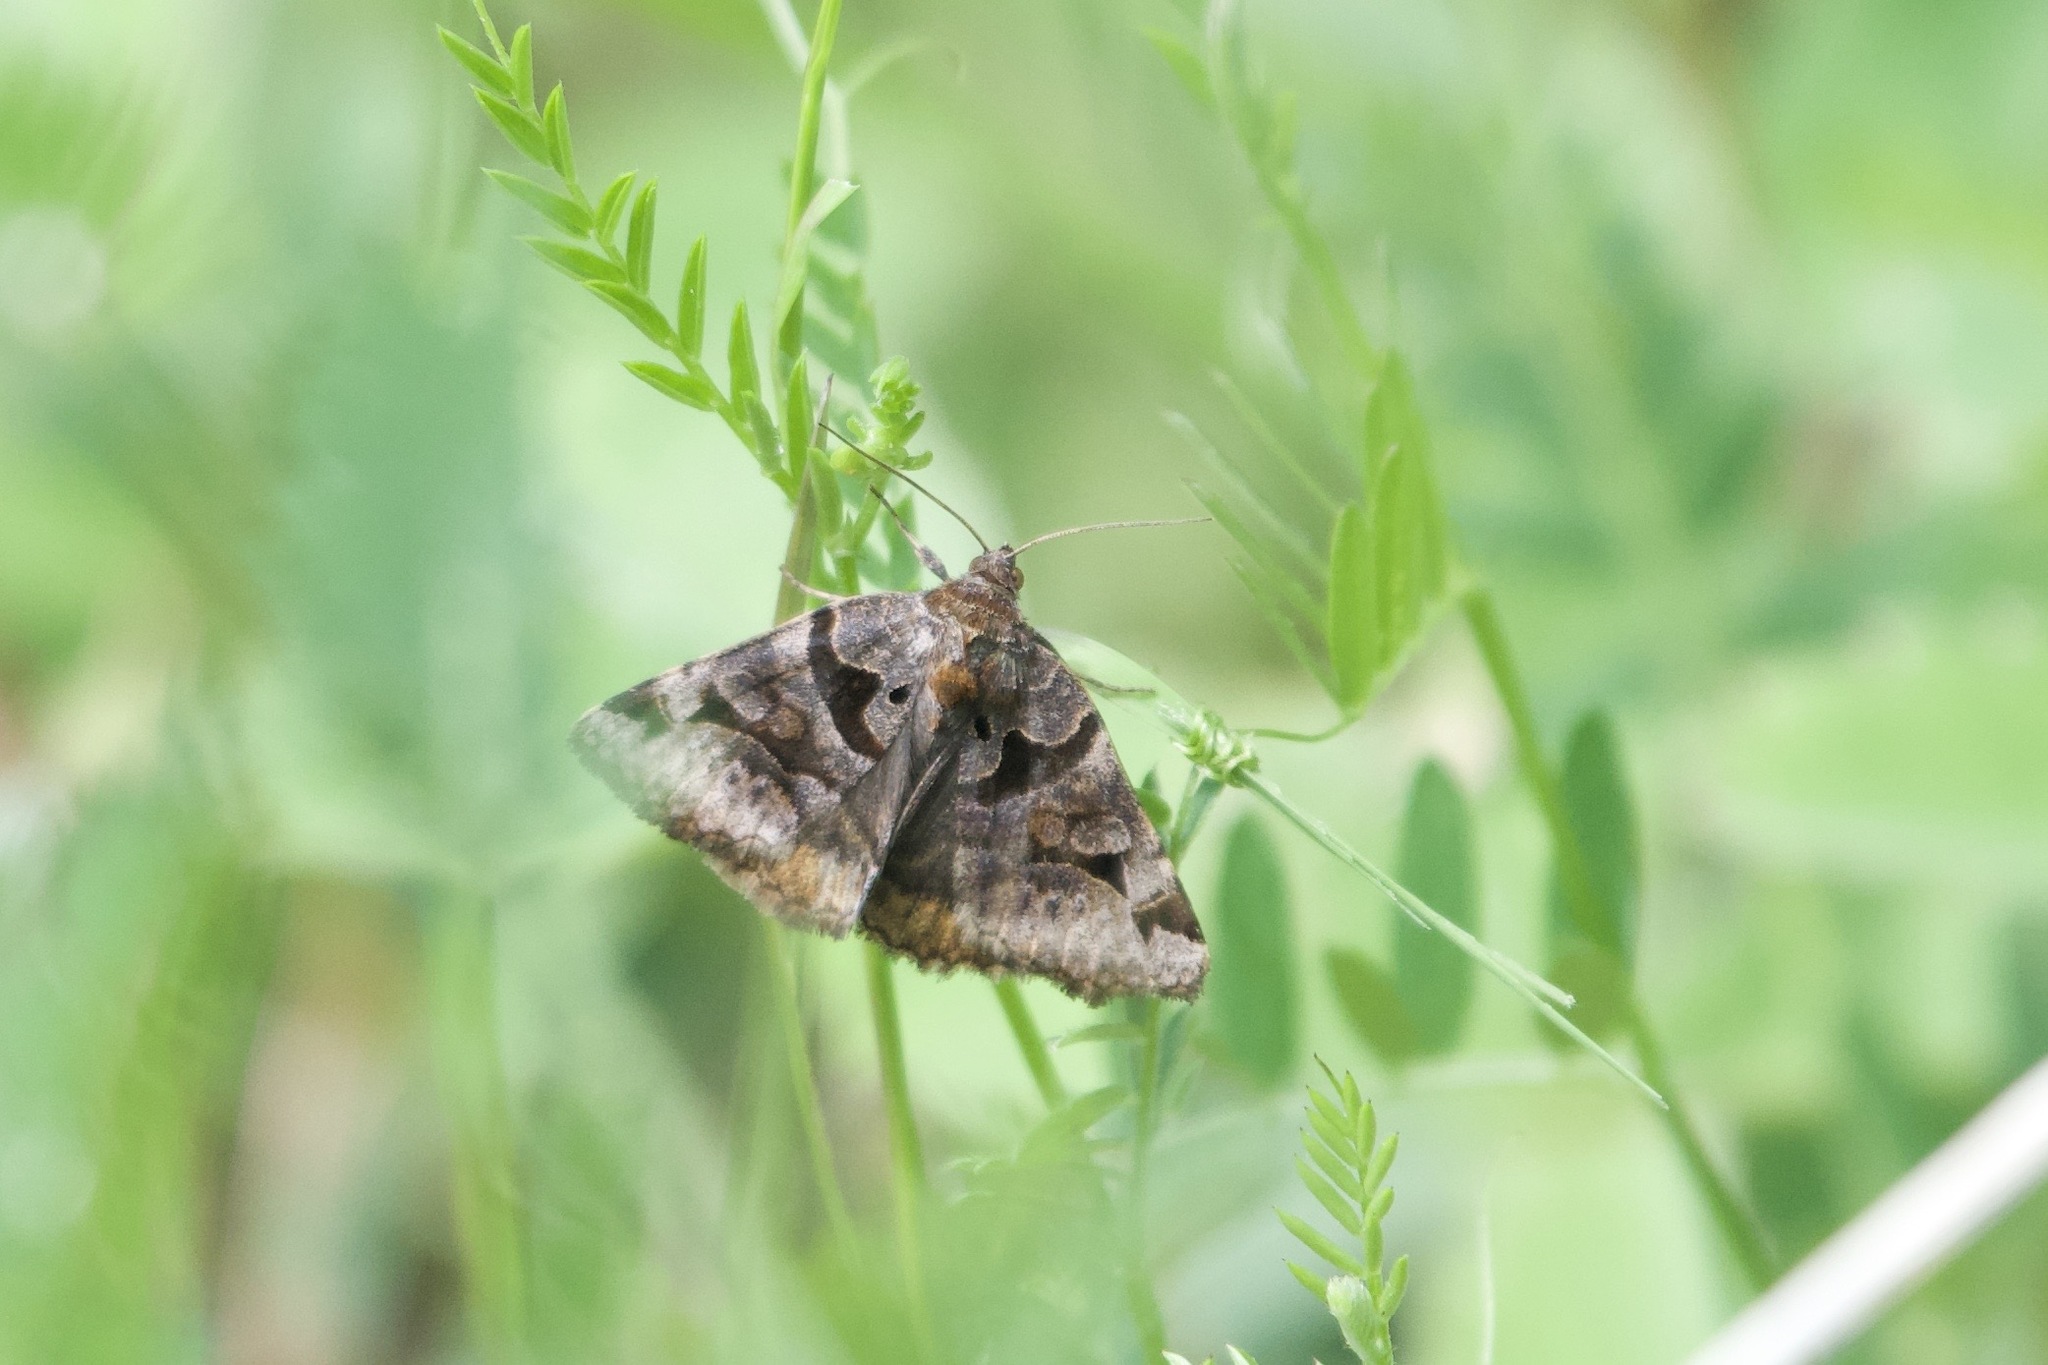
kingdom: Animalia
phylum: Arthropoda
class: Insecta
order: Lepidoptera
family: Erebidae
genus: Euclidia
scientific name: Euclidia cuspidea
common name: Toothed somberwing
